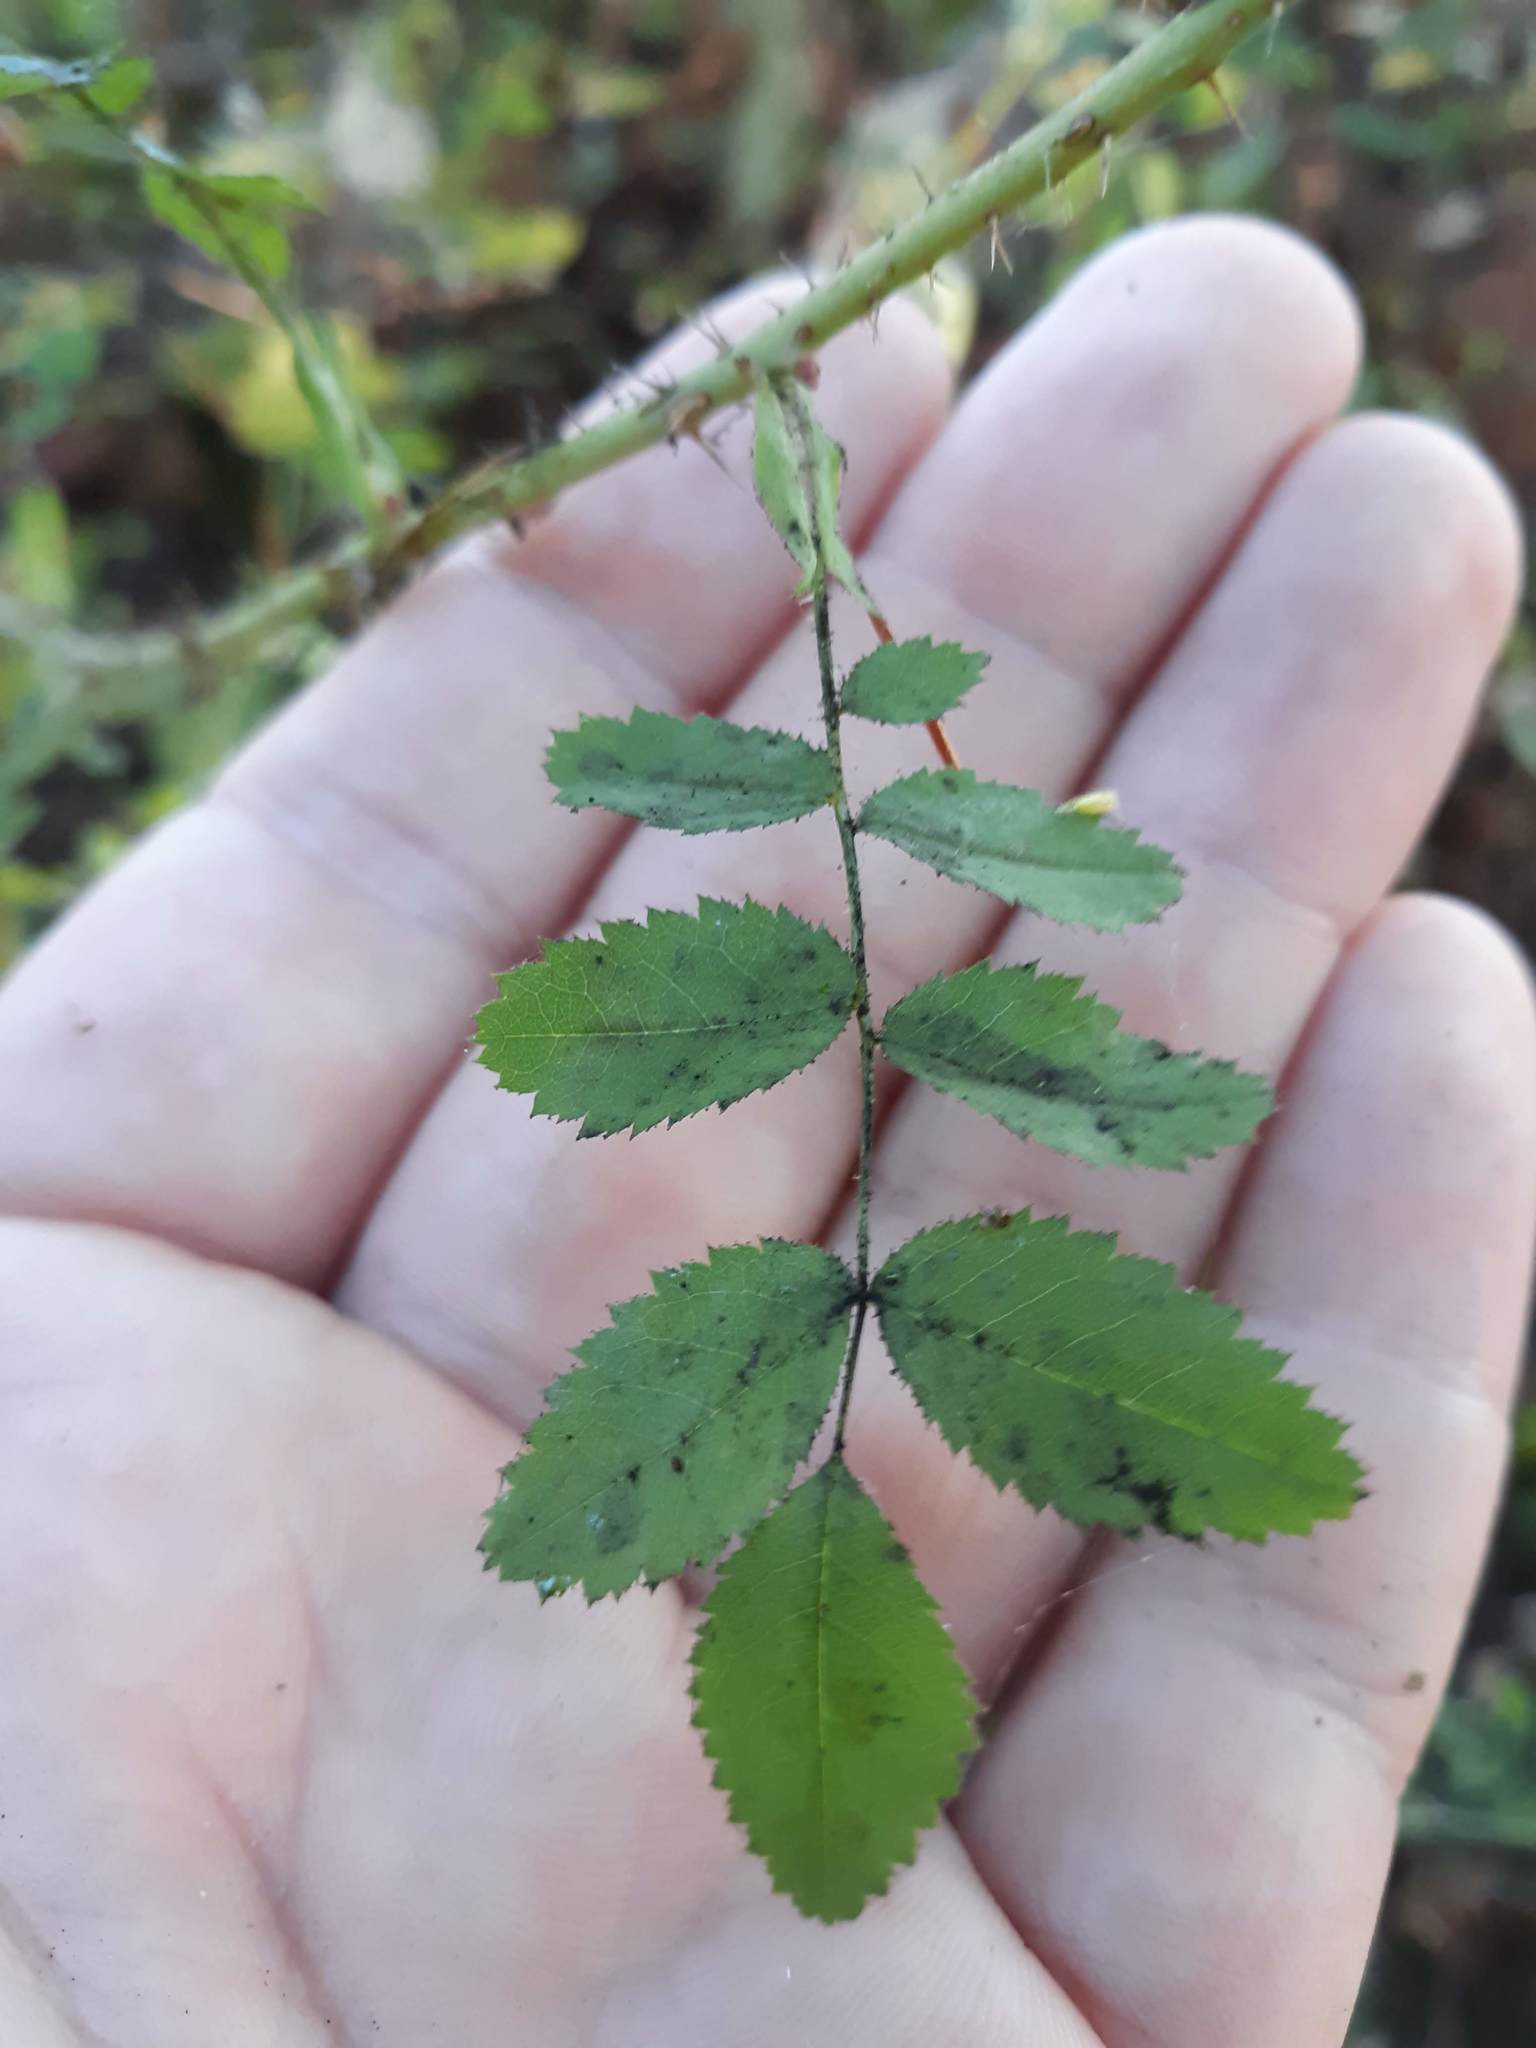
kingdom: Plantae
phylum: Tracheophyta
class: Magnoliopsida
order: Rosales
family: Rosaceae
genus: Rosa
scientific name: Rosa gymnocarpa
